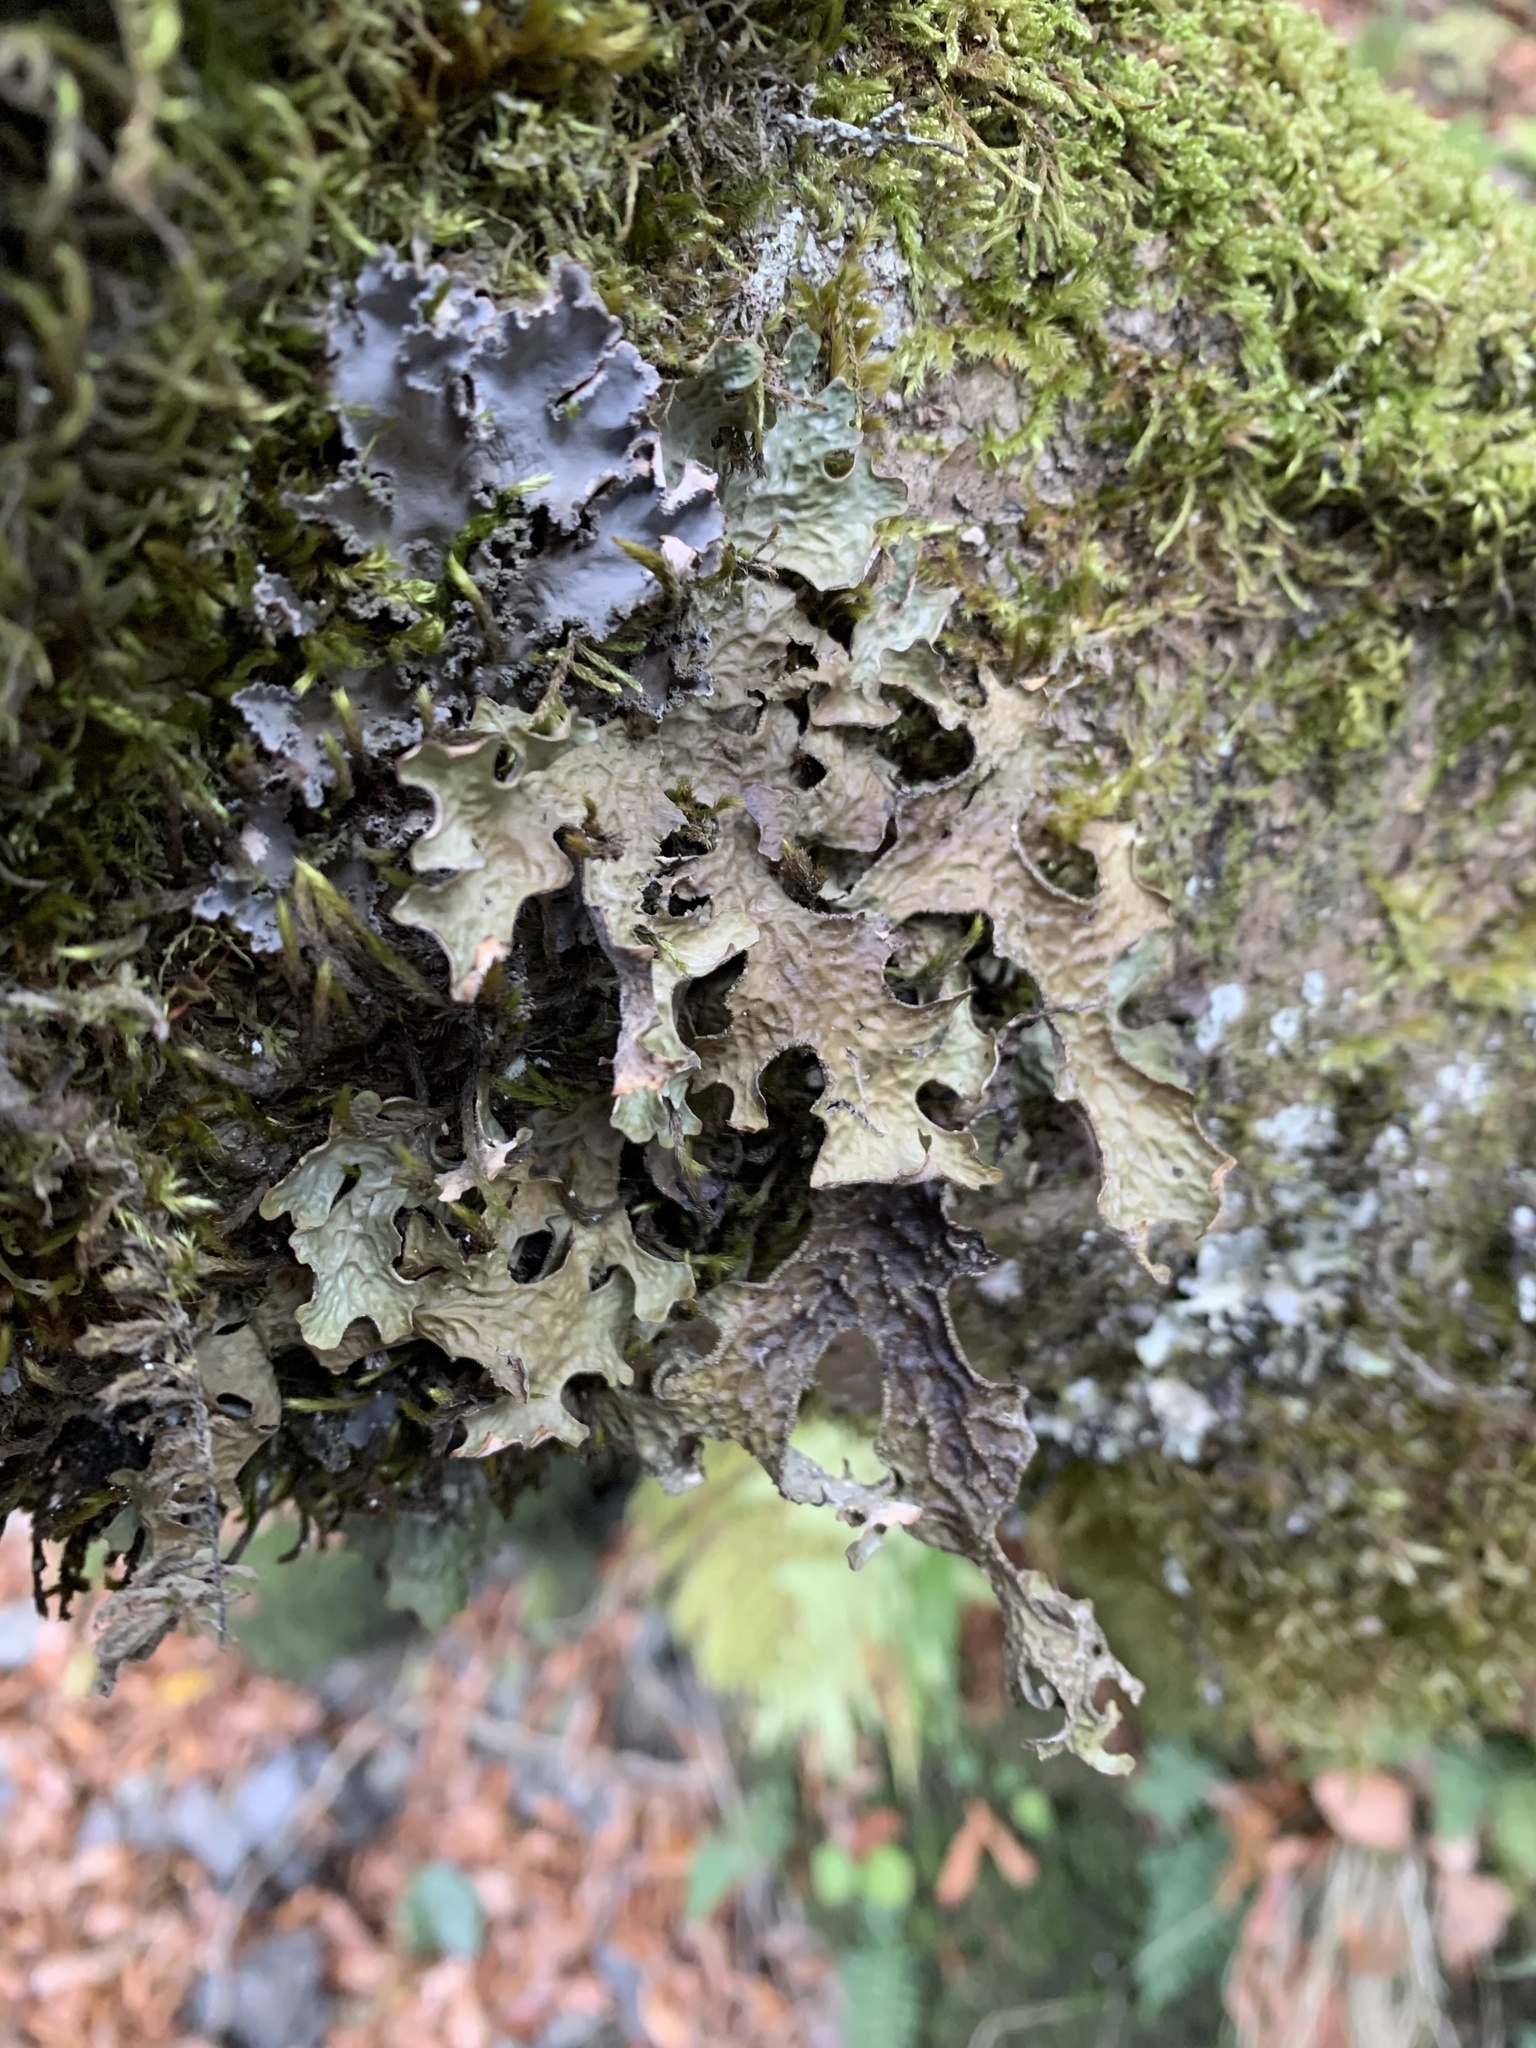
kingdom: Fungi
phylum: Ascomycota
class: Lecanoromycetes
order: Peltigerales
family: Lobariaceae
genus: Lobaria
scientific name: Lobaria pulmonaria
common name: Lungwort
